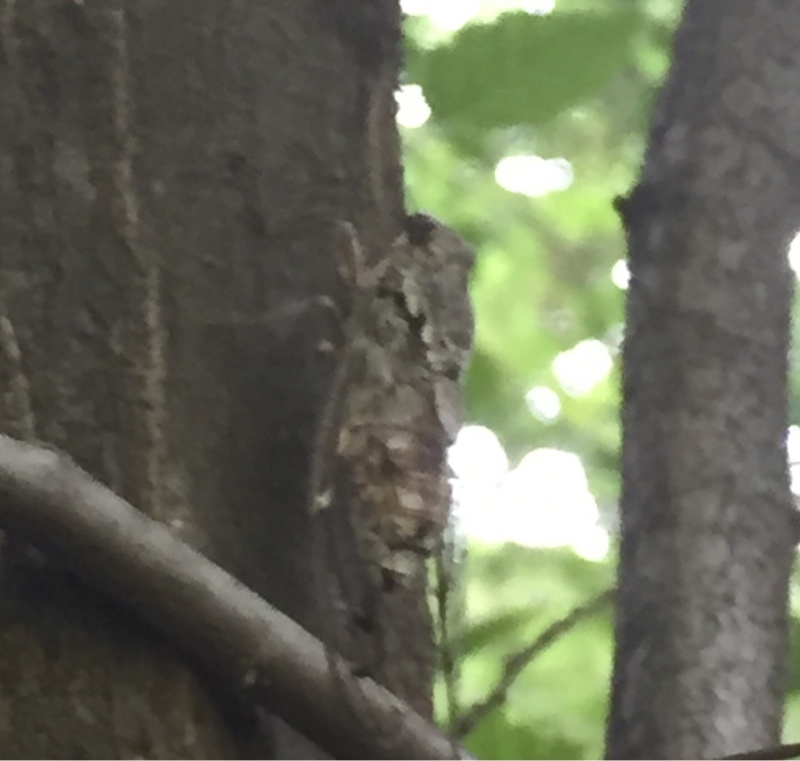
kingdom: Animalia
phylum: Arthropoda
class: Insecta
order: Hemiptera
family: Cicadidae
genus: Cicada
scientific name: Cicada orni
